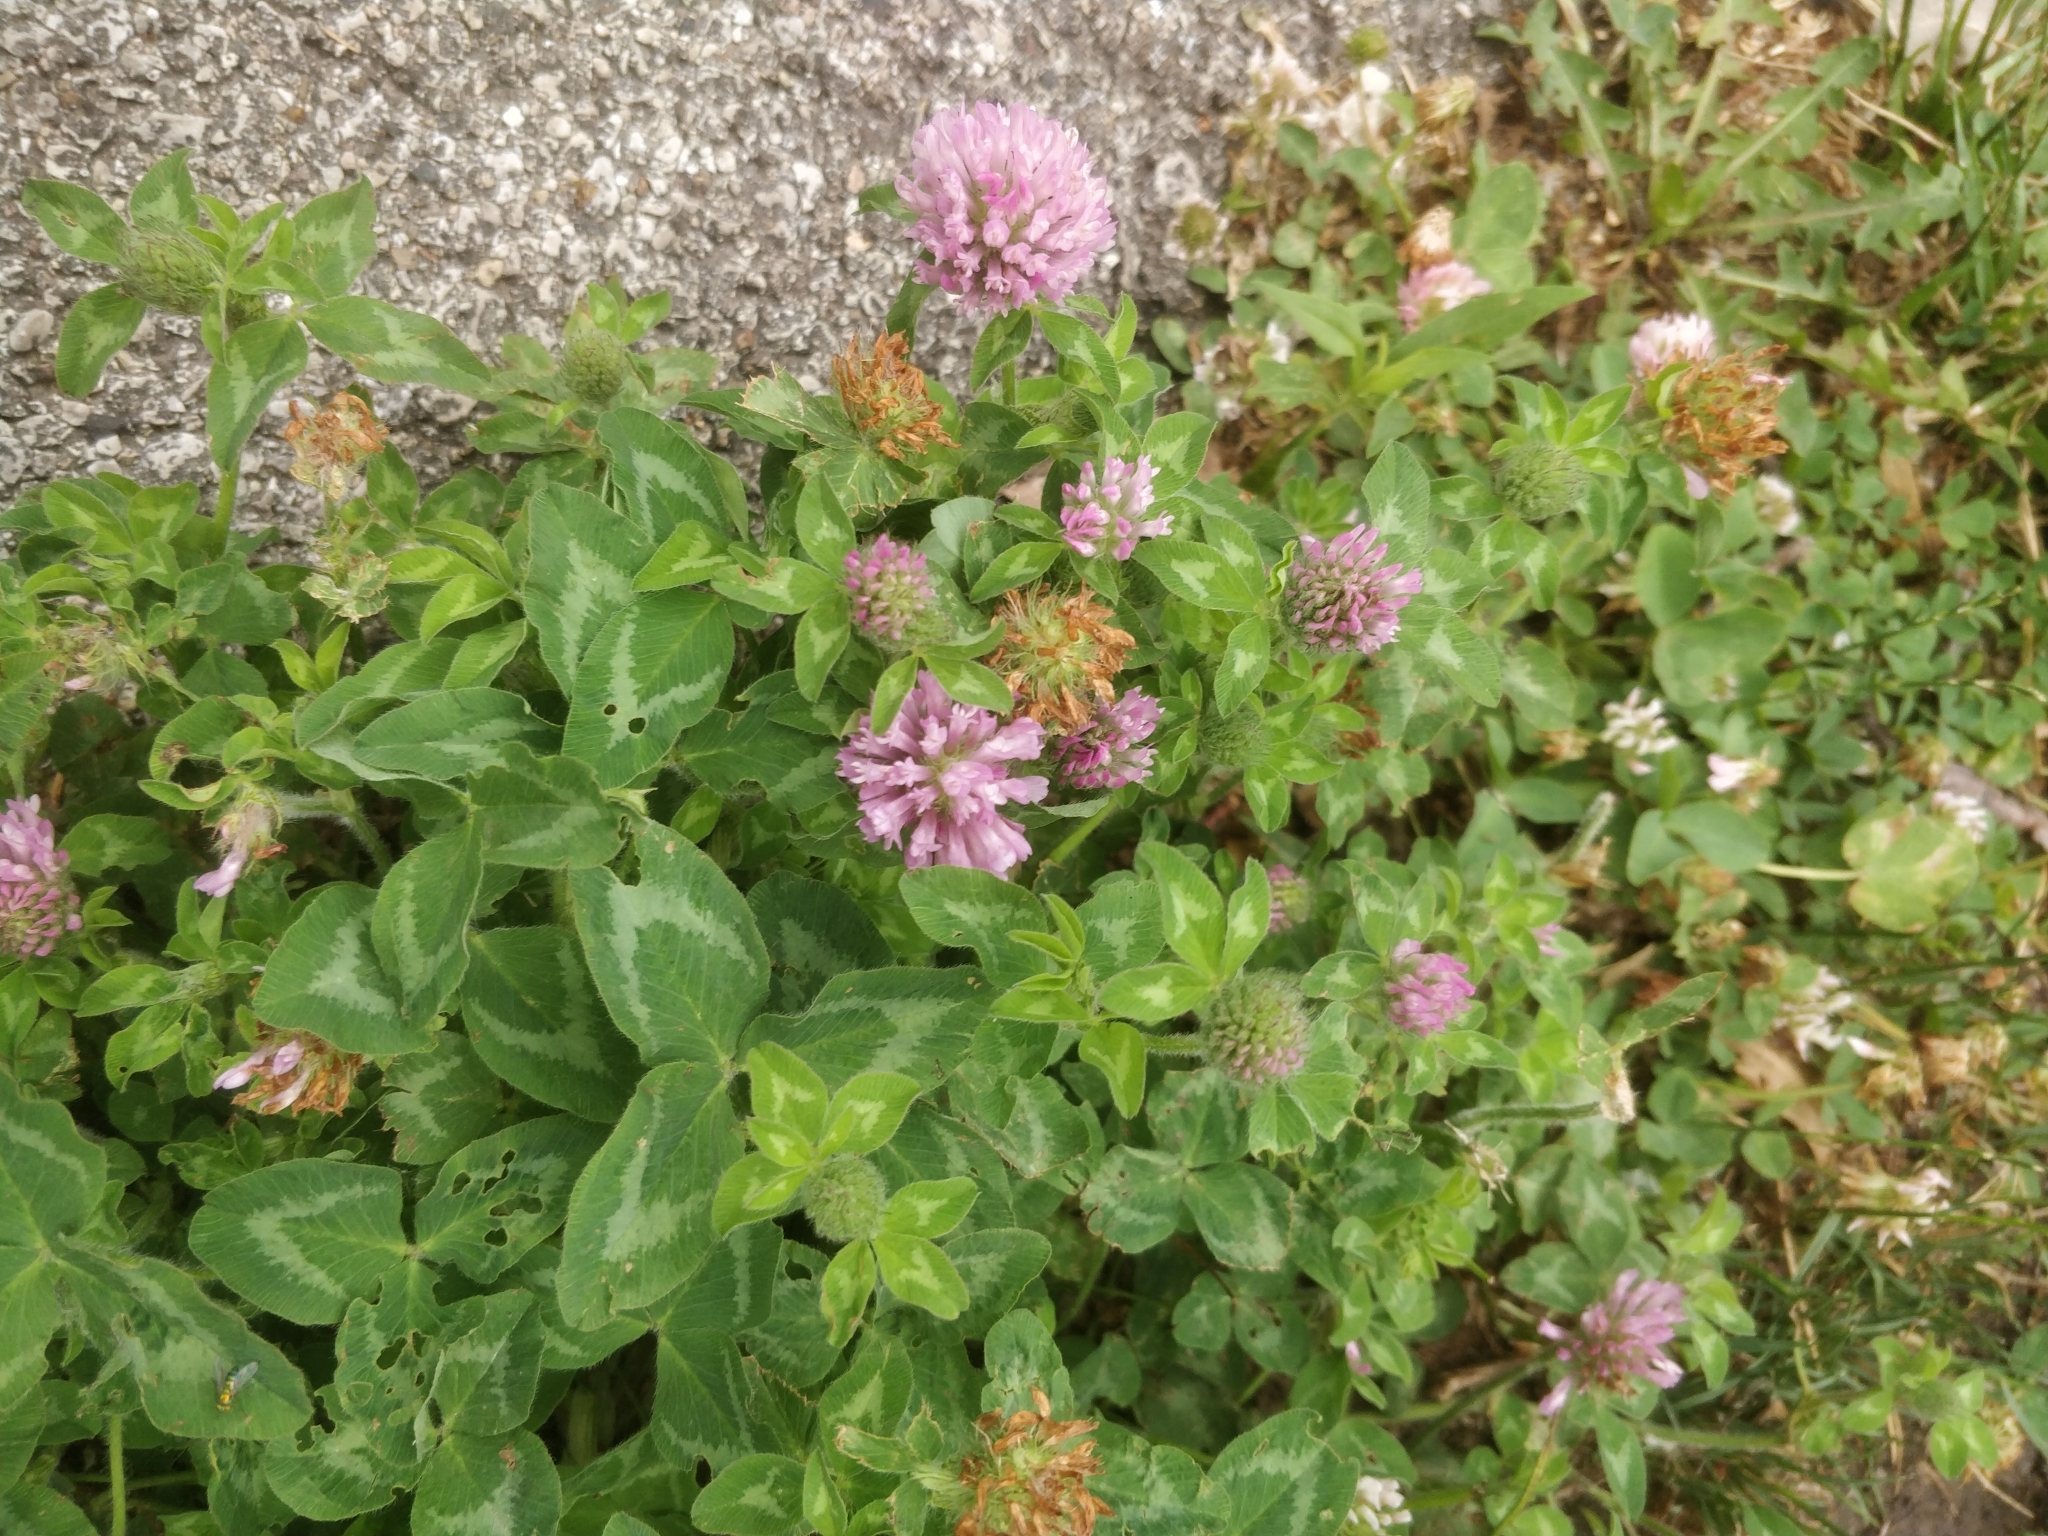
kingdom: Plantae
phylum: Tracheophyta
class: Magnoliopsida
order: Fabales
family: Fabaceae
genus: Trifolium
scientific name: Trifolium pratense
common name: Red clover
